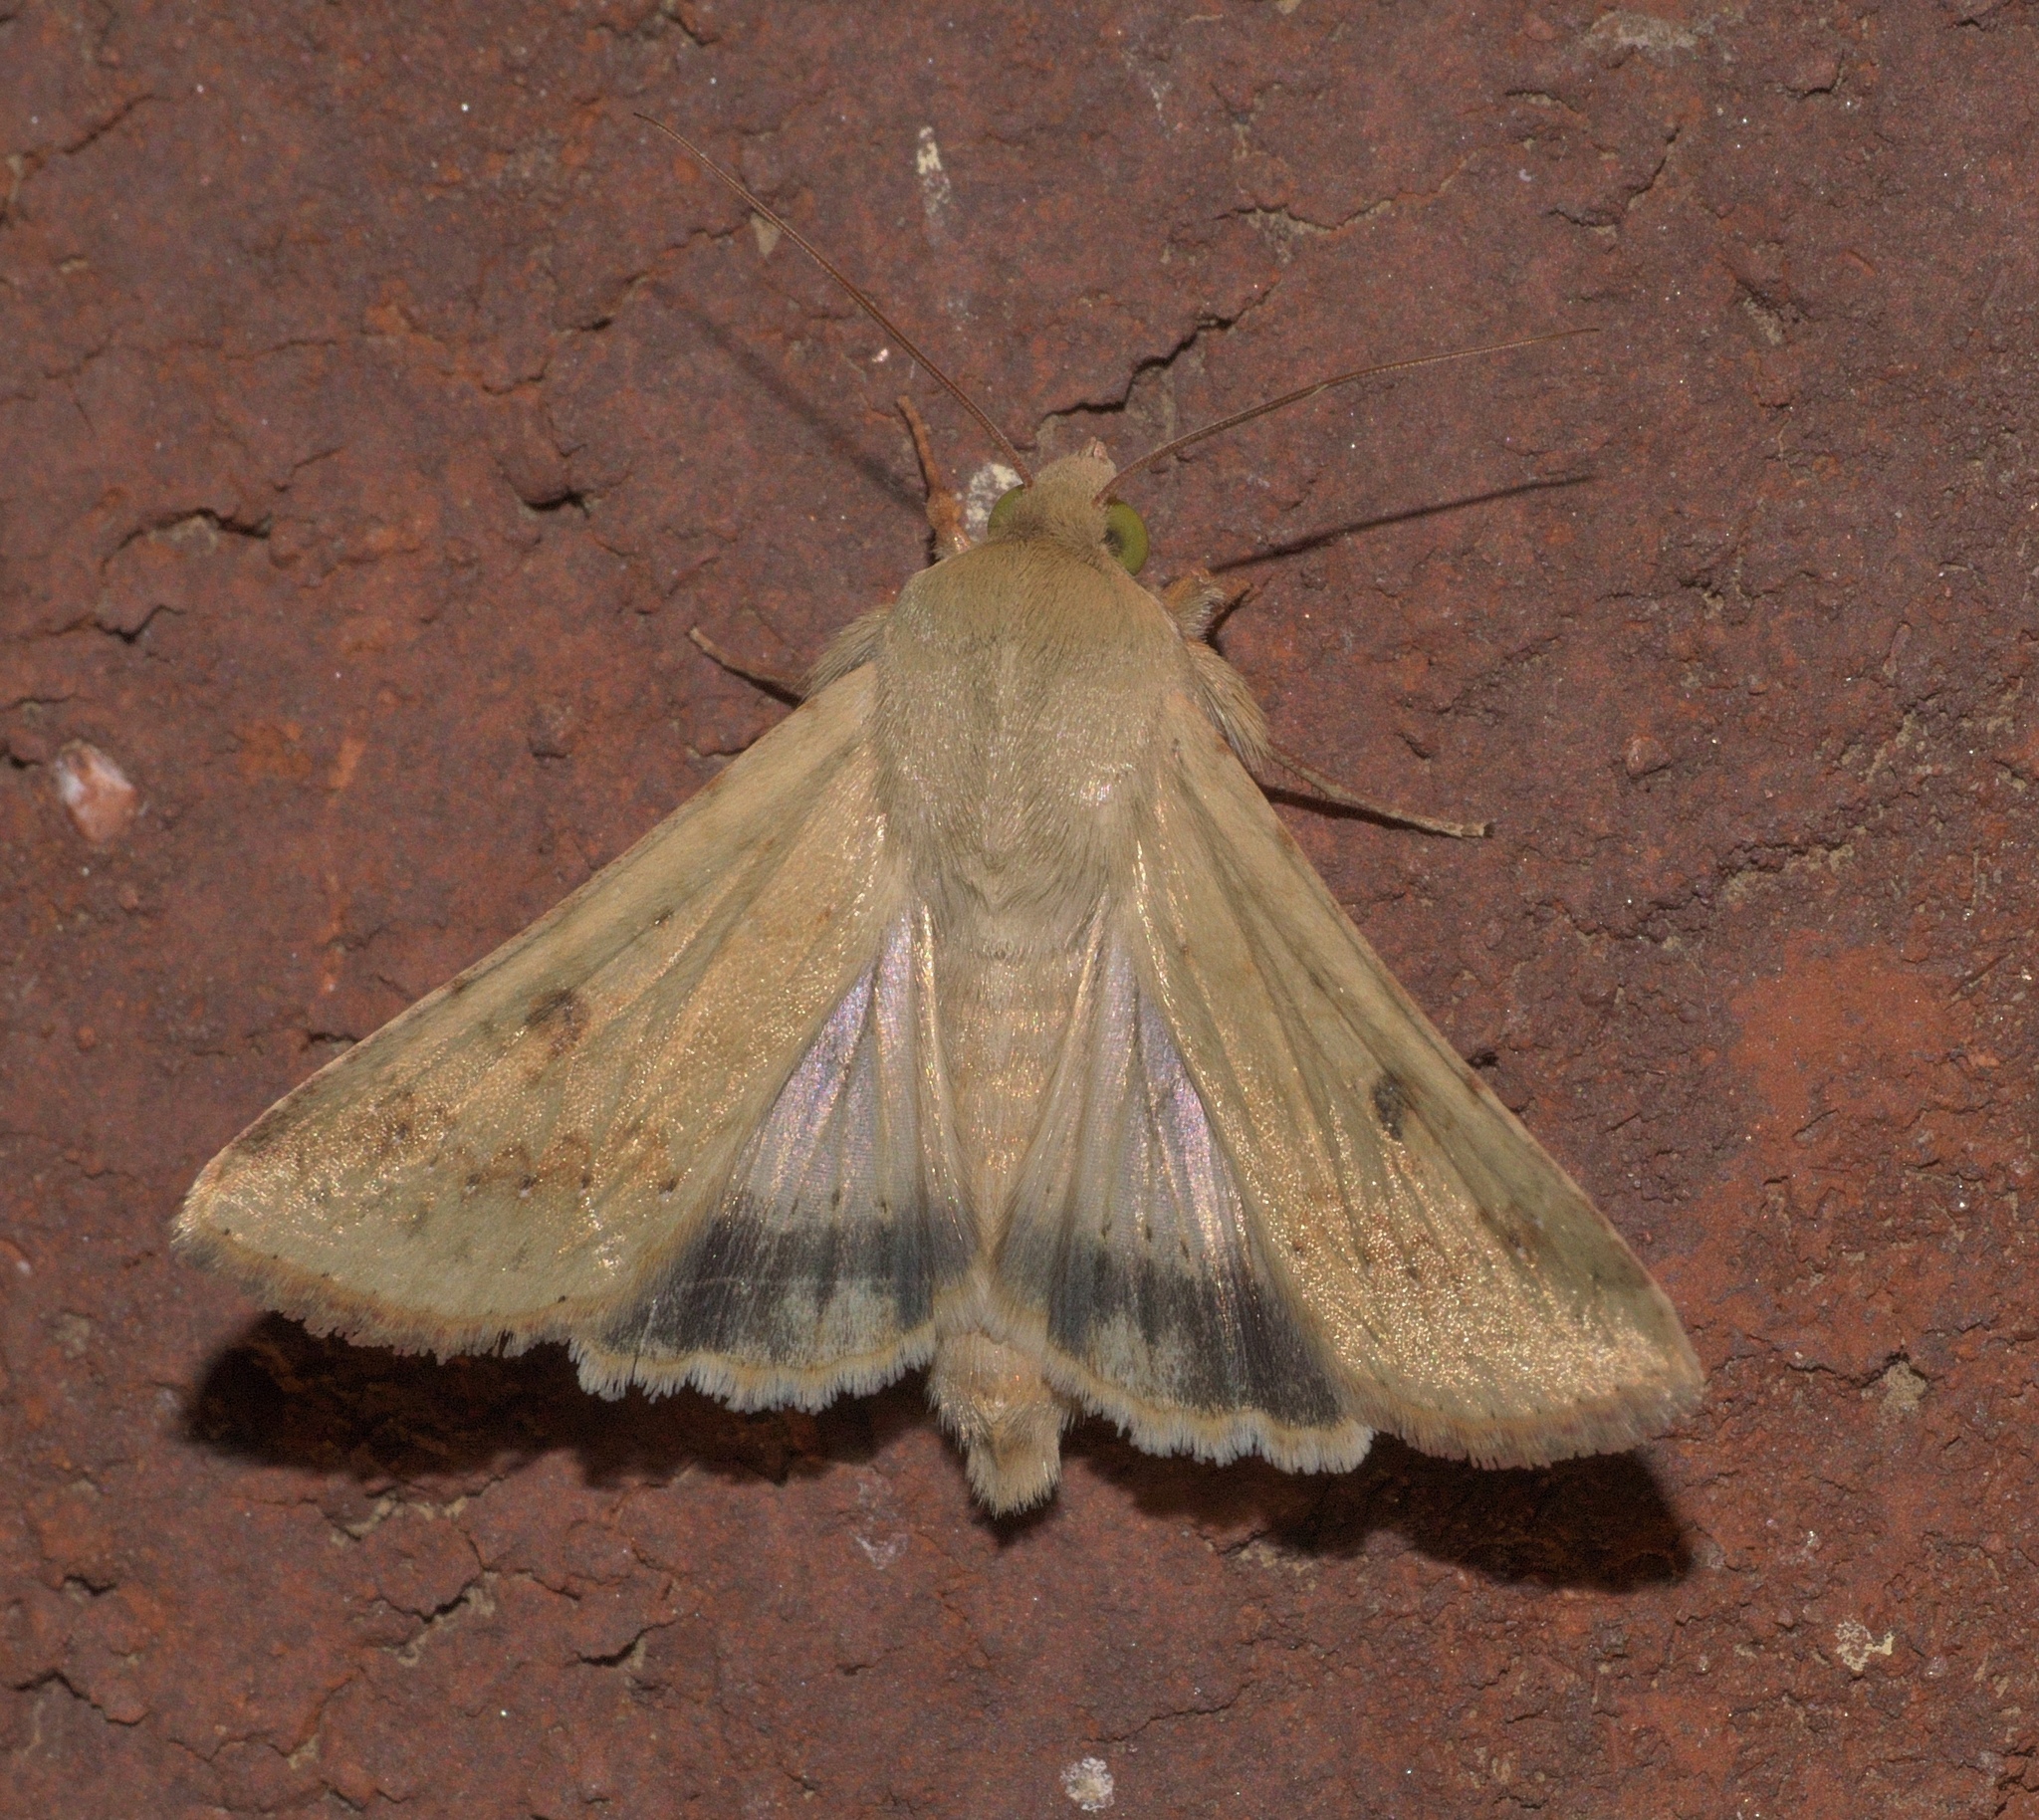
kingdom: Animalia
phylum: Arthropoda
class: Insecta
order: Lepidoptera
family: Noctuidae
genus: Helicoverpa
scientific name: Helicoverpa zea
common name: Bollworm
